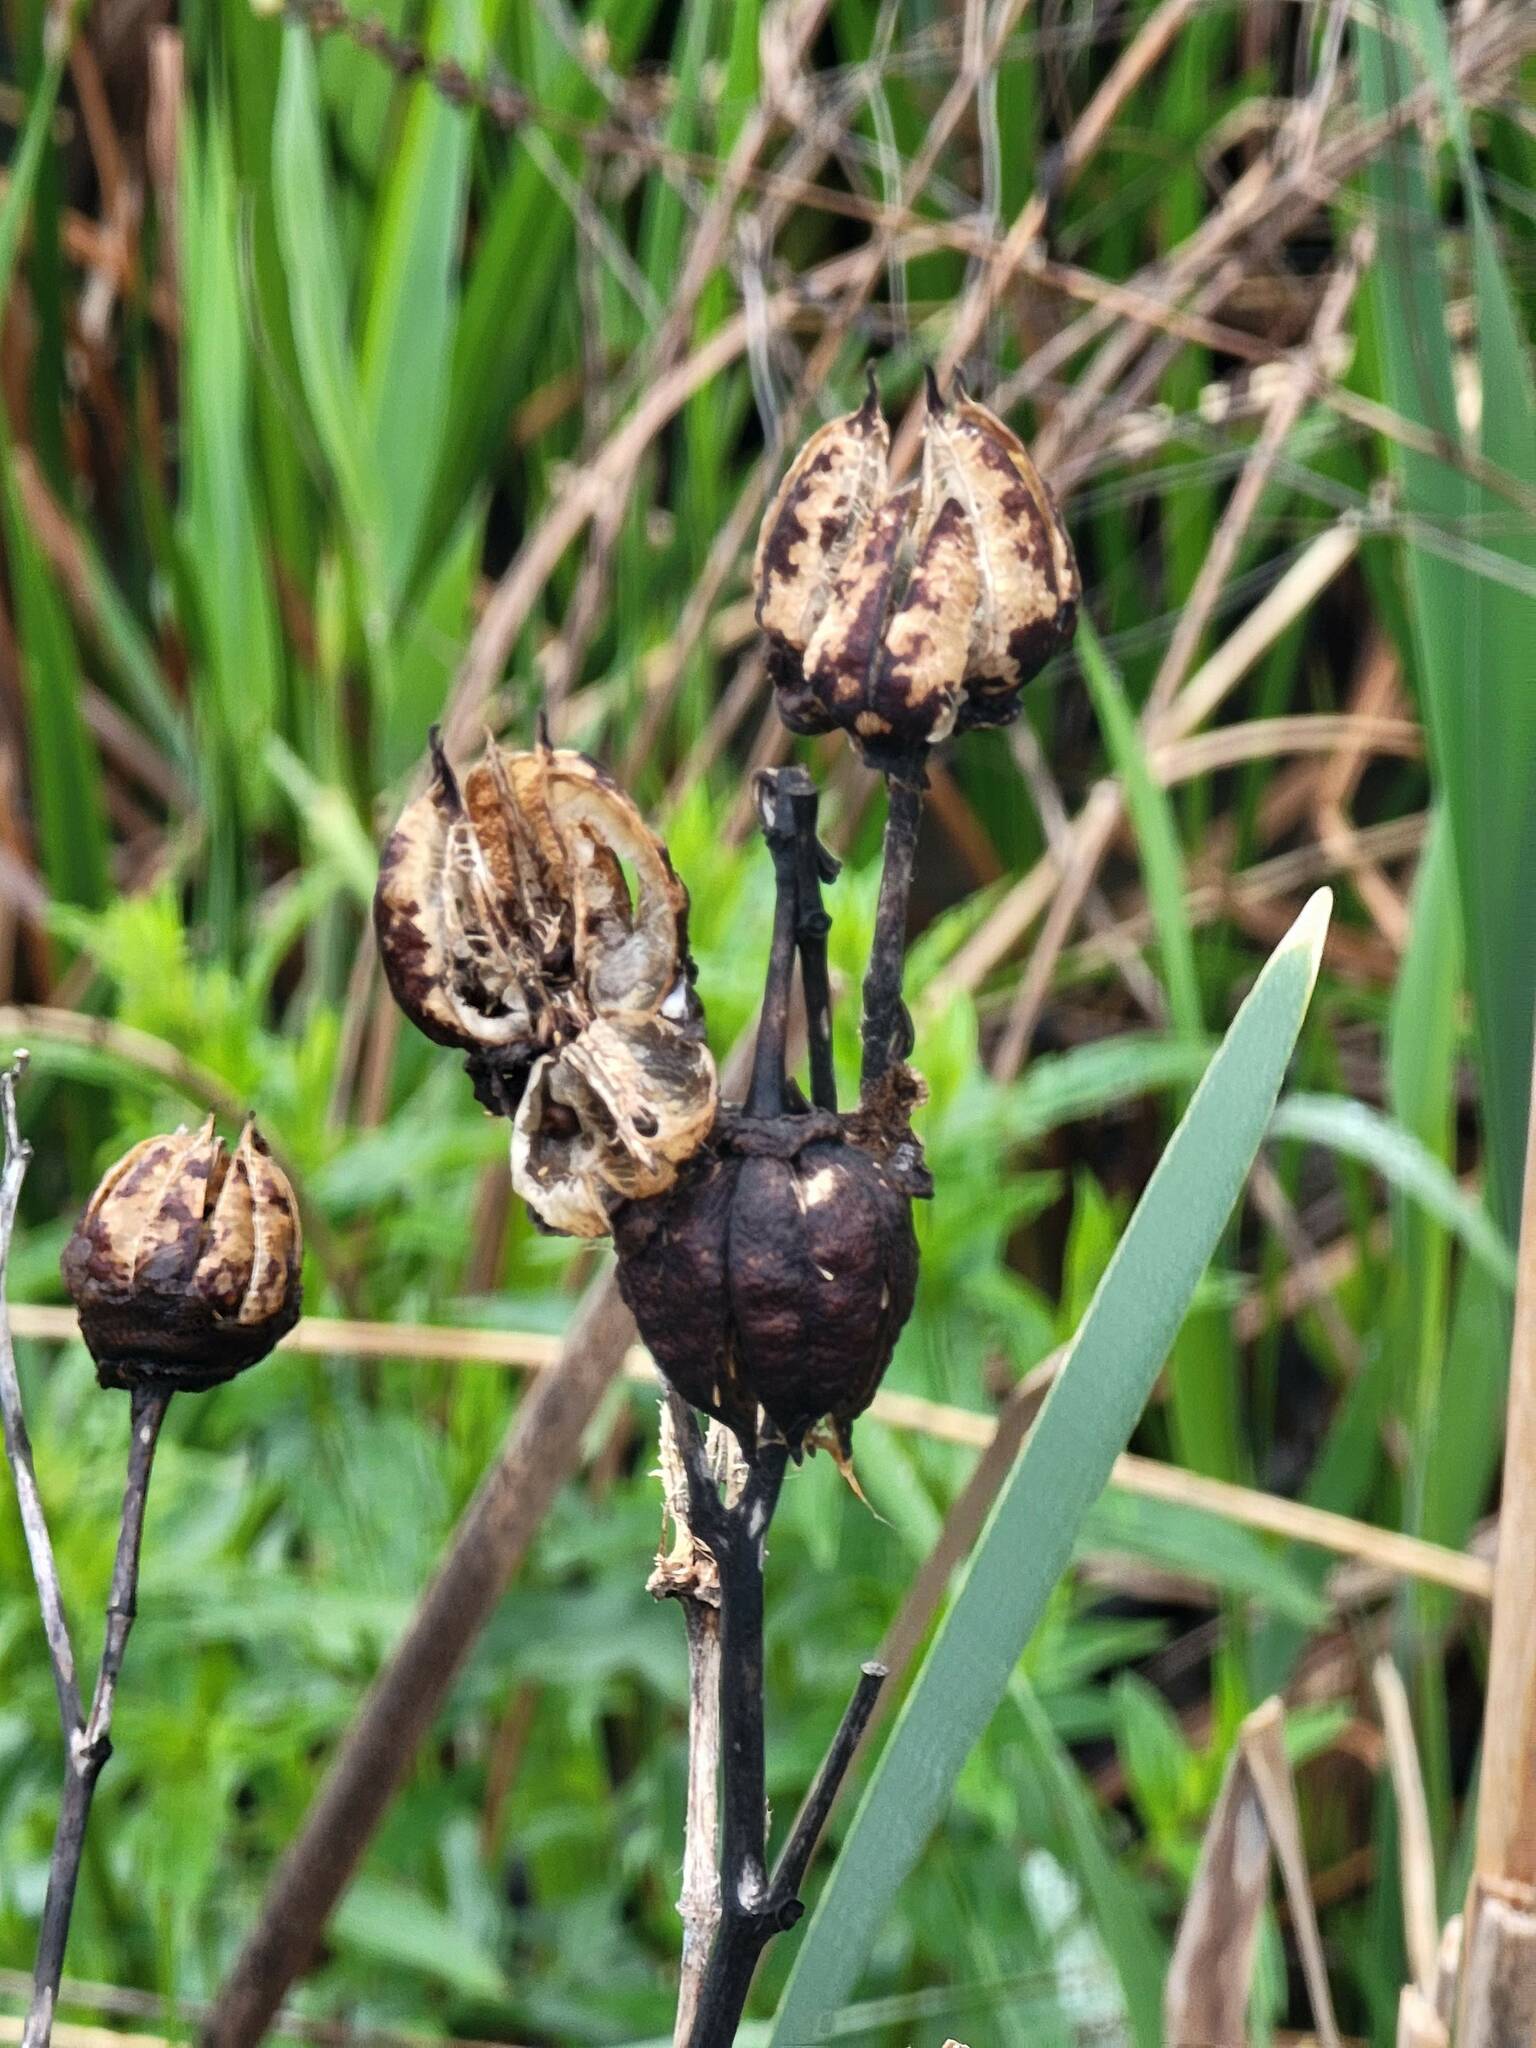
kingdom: Plantae
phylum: Tracheophyta
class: Magnoliopsida
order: Malvales
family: Malvaceae
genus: Hibiscus
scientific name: Hibiscus moscheutos
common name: Common rose-mallow
